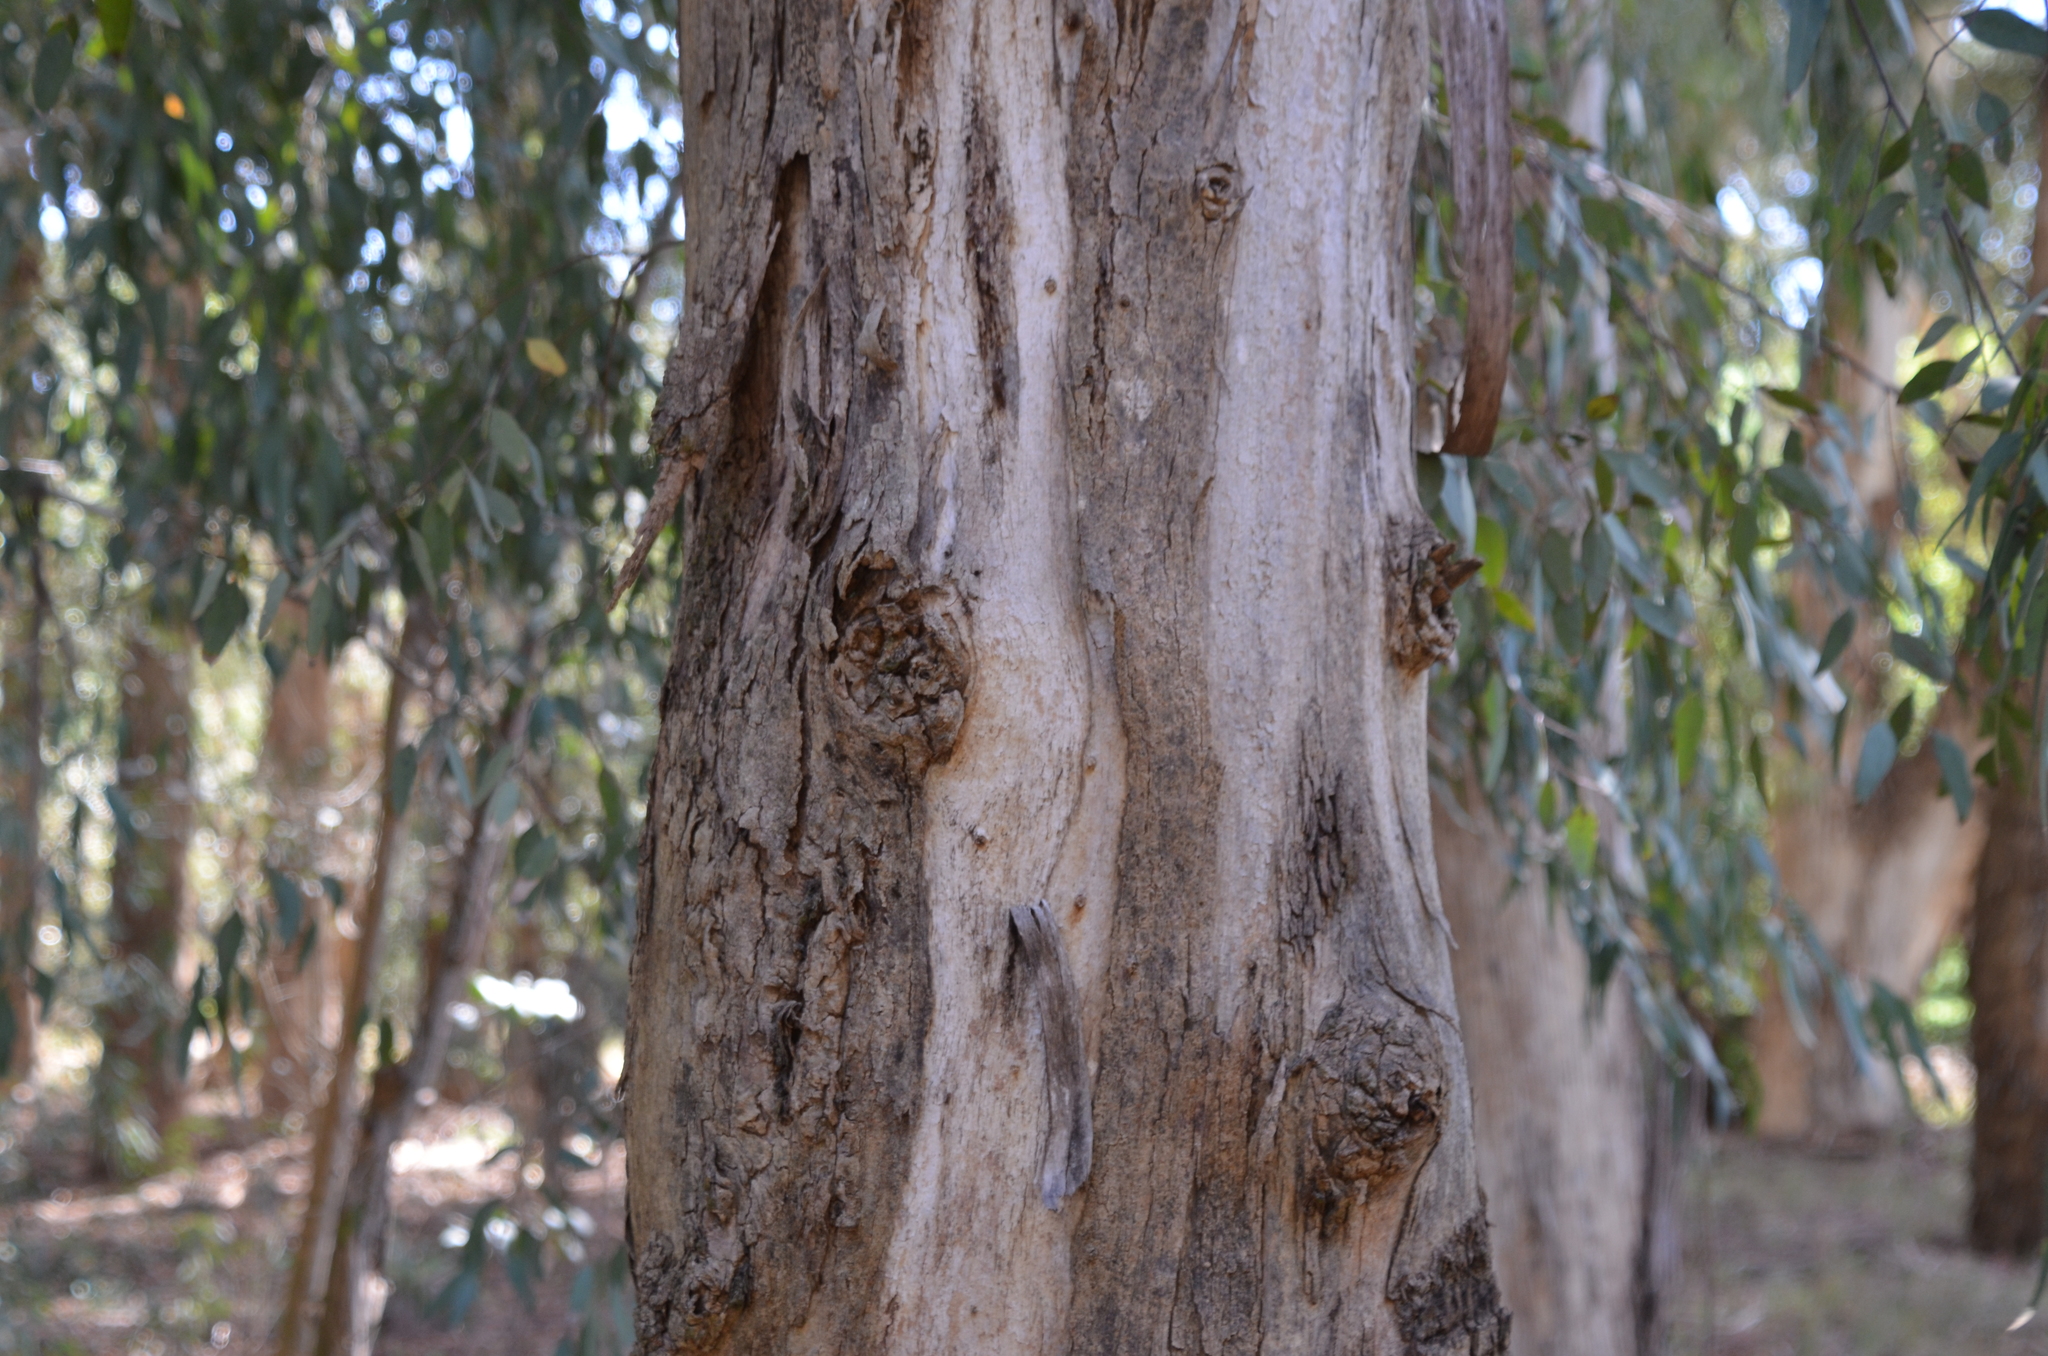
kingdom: Plantae
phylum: Tracheophyta
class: Magnoliopsida
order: Myrtales
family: Myrtaceae
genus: Eucalyptus
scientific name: Eucalyptus camaldulensis
